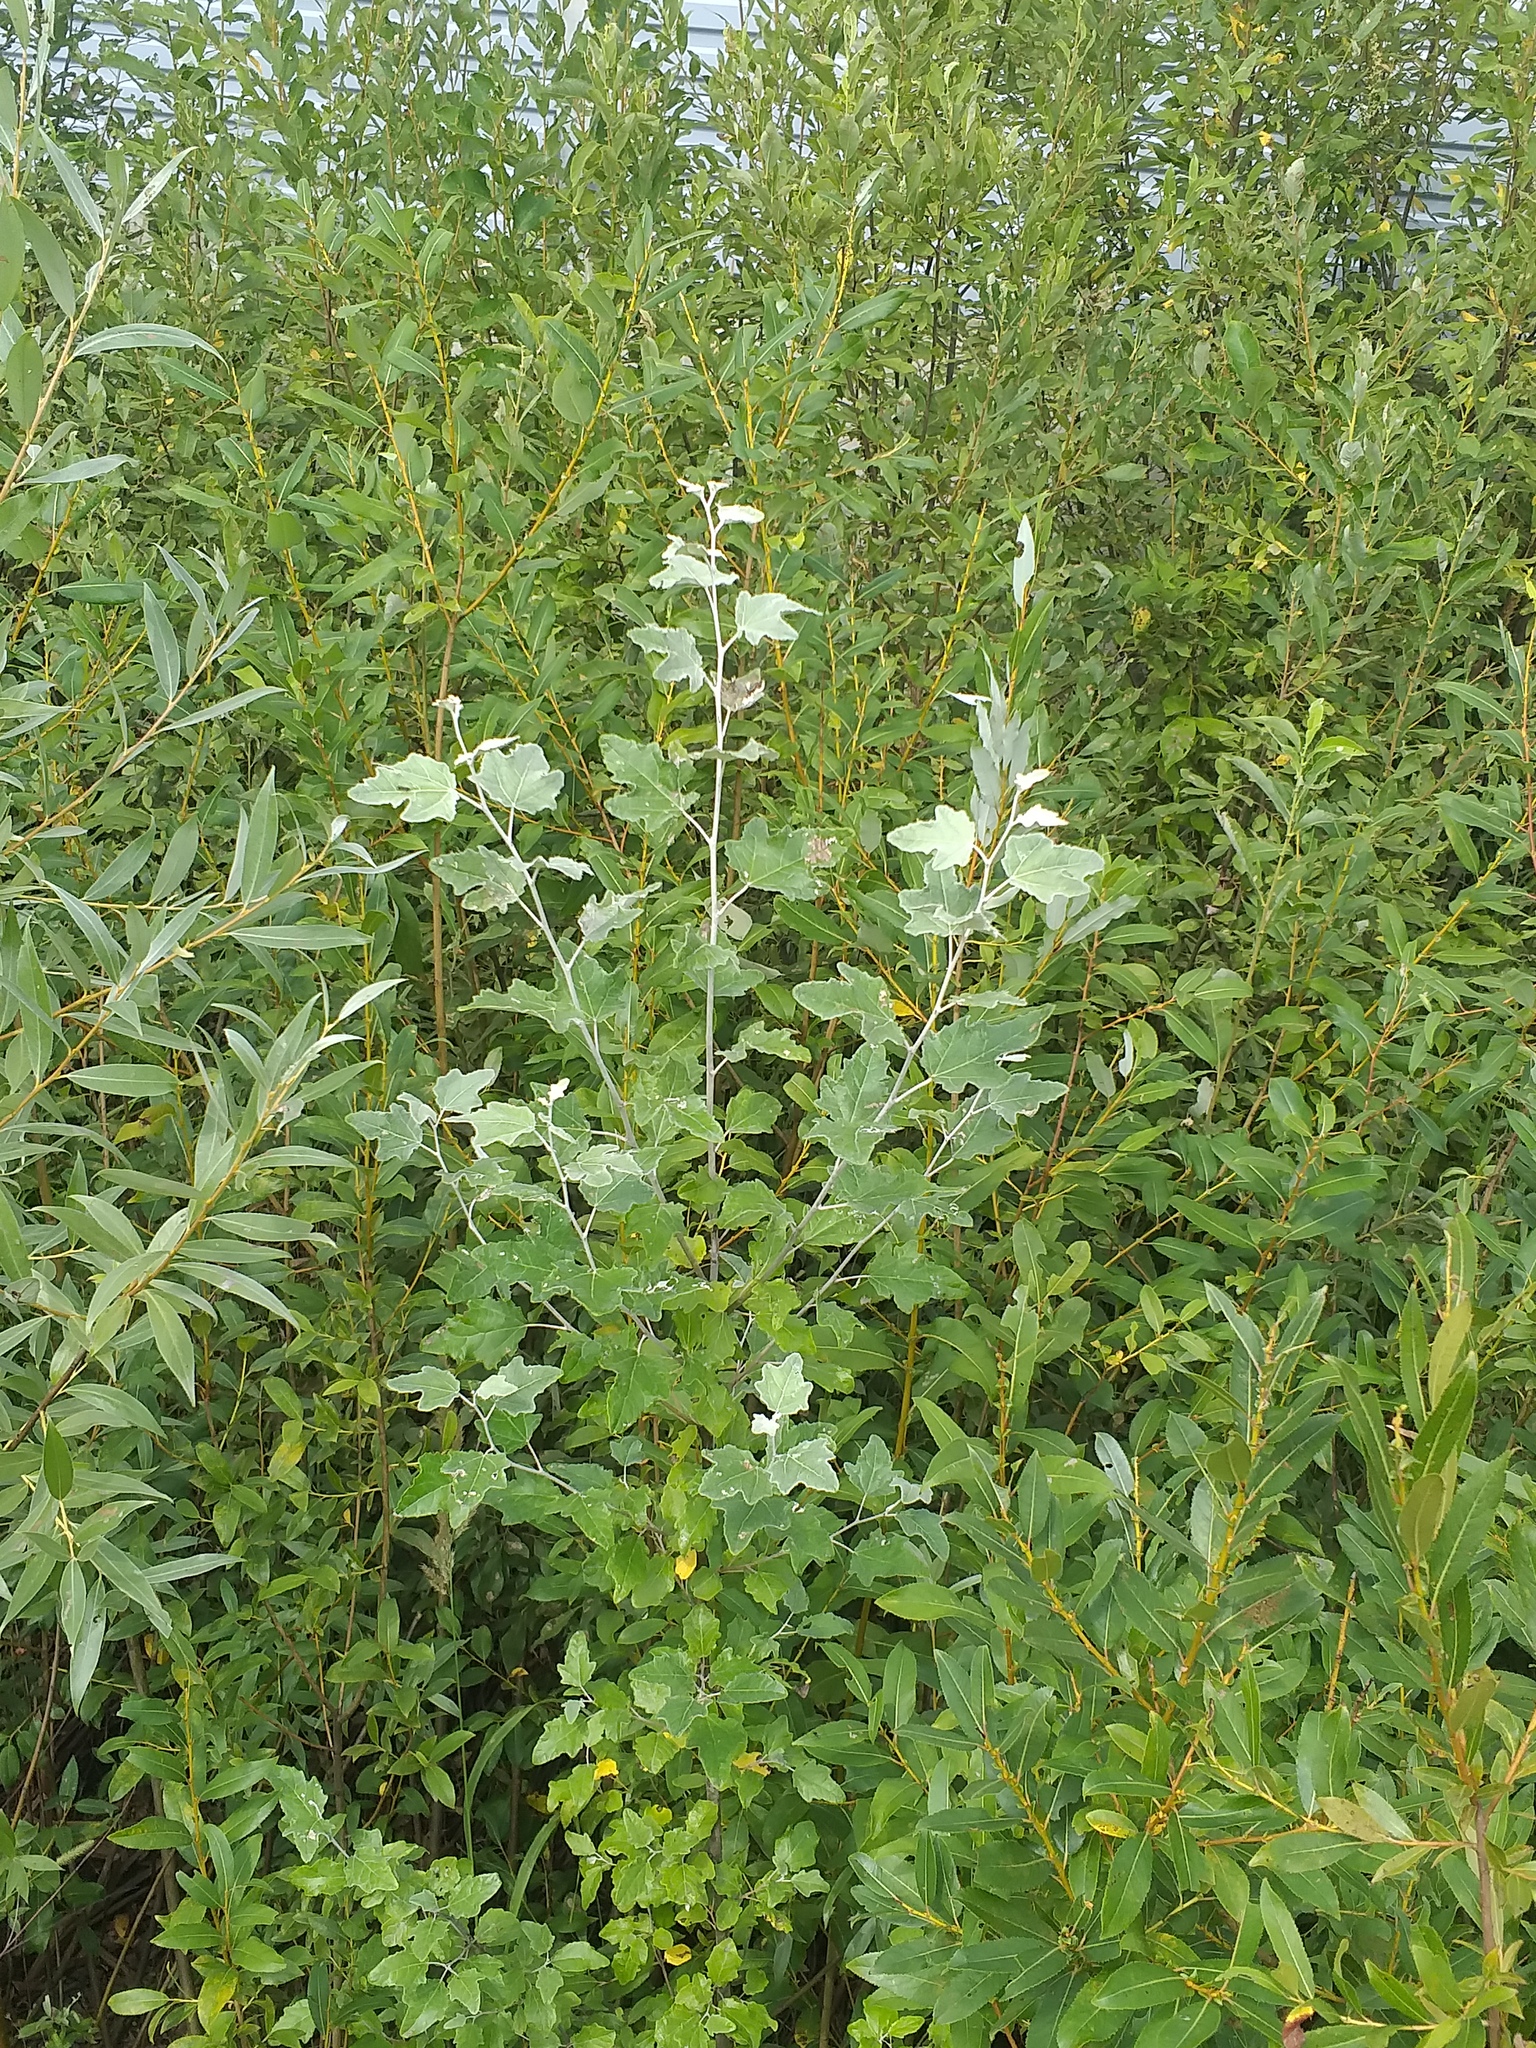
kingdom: Plantae
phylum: Tracheophyta
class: Magnoliopsida
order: Malpighiales
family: Salicaceae
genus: Populus
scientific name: Populus alba
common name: White poplar
